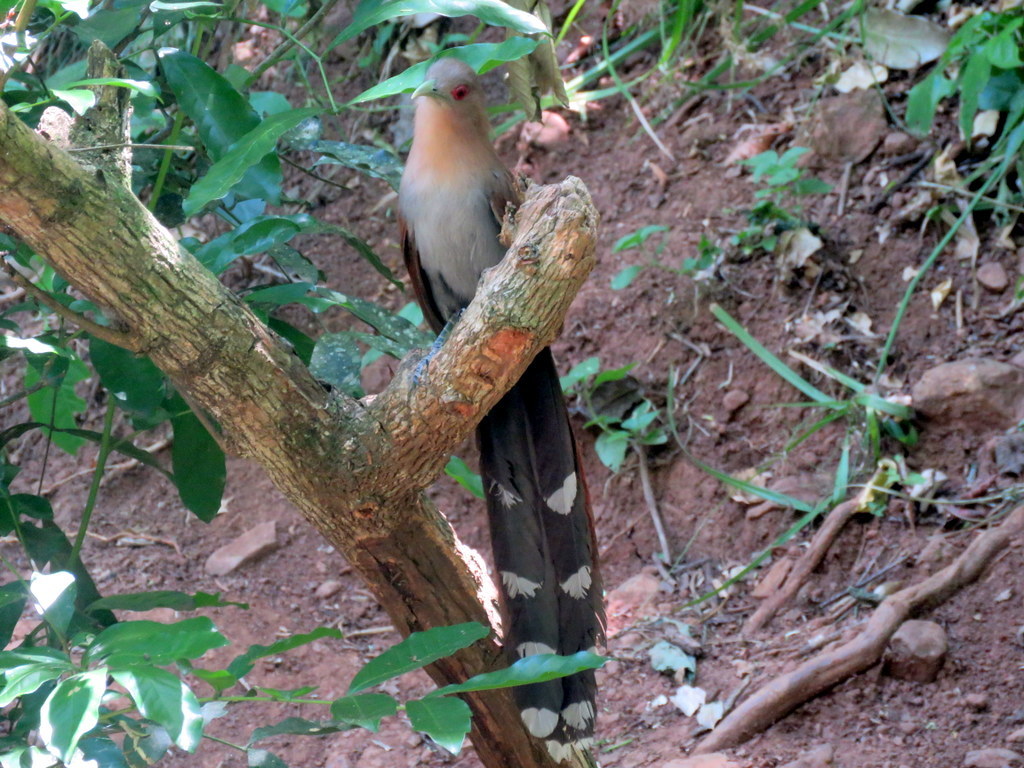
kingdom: Animalia
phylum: Chordata
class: Aves
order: Cuculiformes
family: Cuculidae
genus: Piaya
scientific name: Piaya cayana
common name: Squirrel cuckoo
